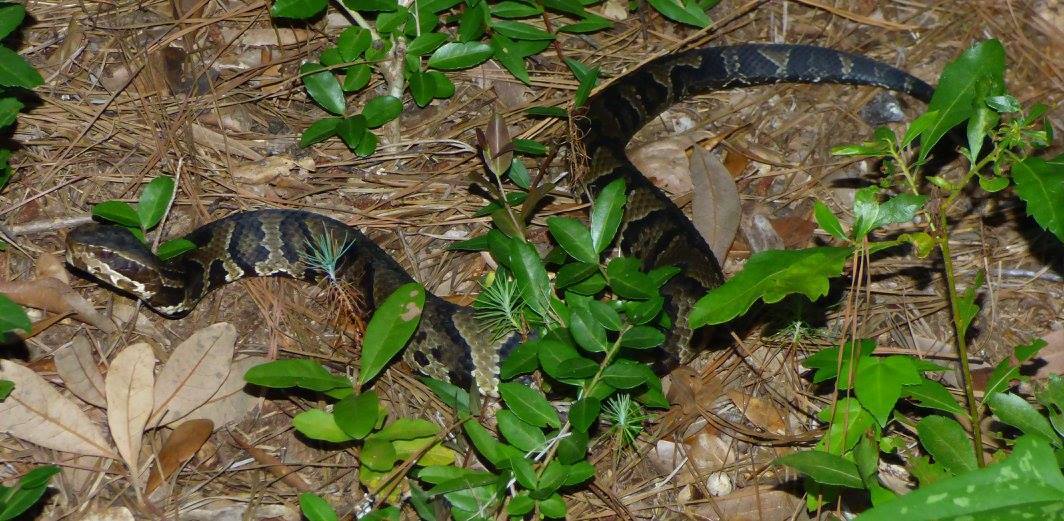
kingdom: Animalia
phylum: Chordata
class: Squamata
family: Viperidae
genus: Agkistrodon
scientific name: Agkistrodon piscivorus
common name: Cottonmouth
